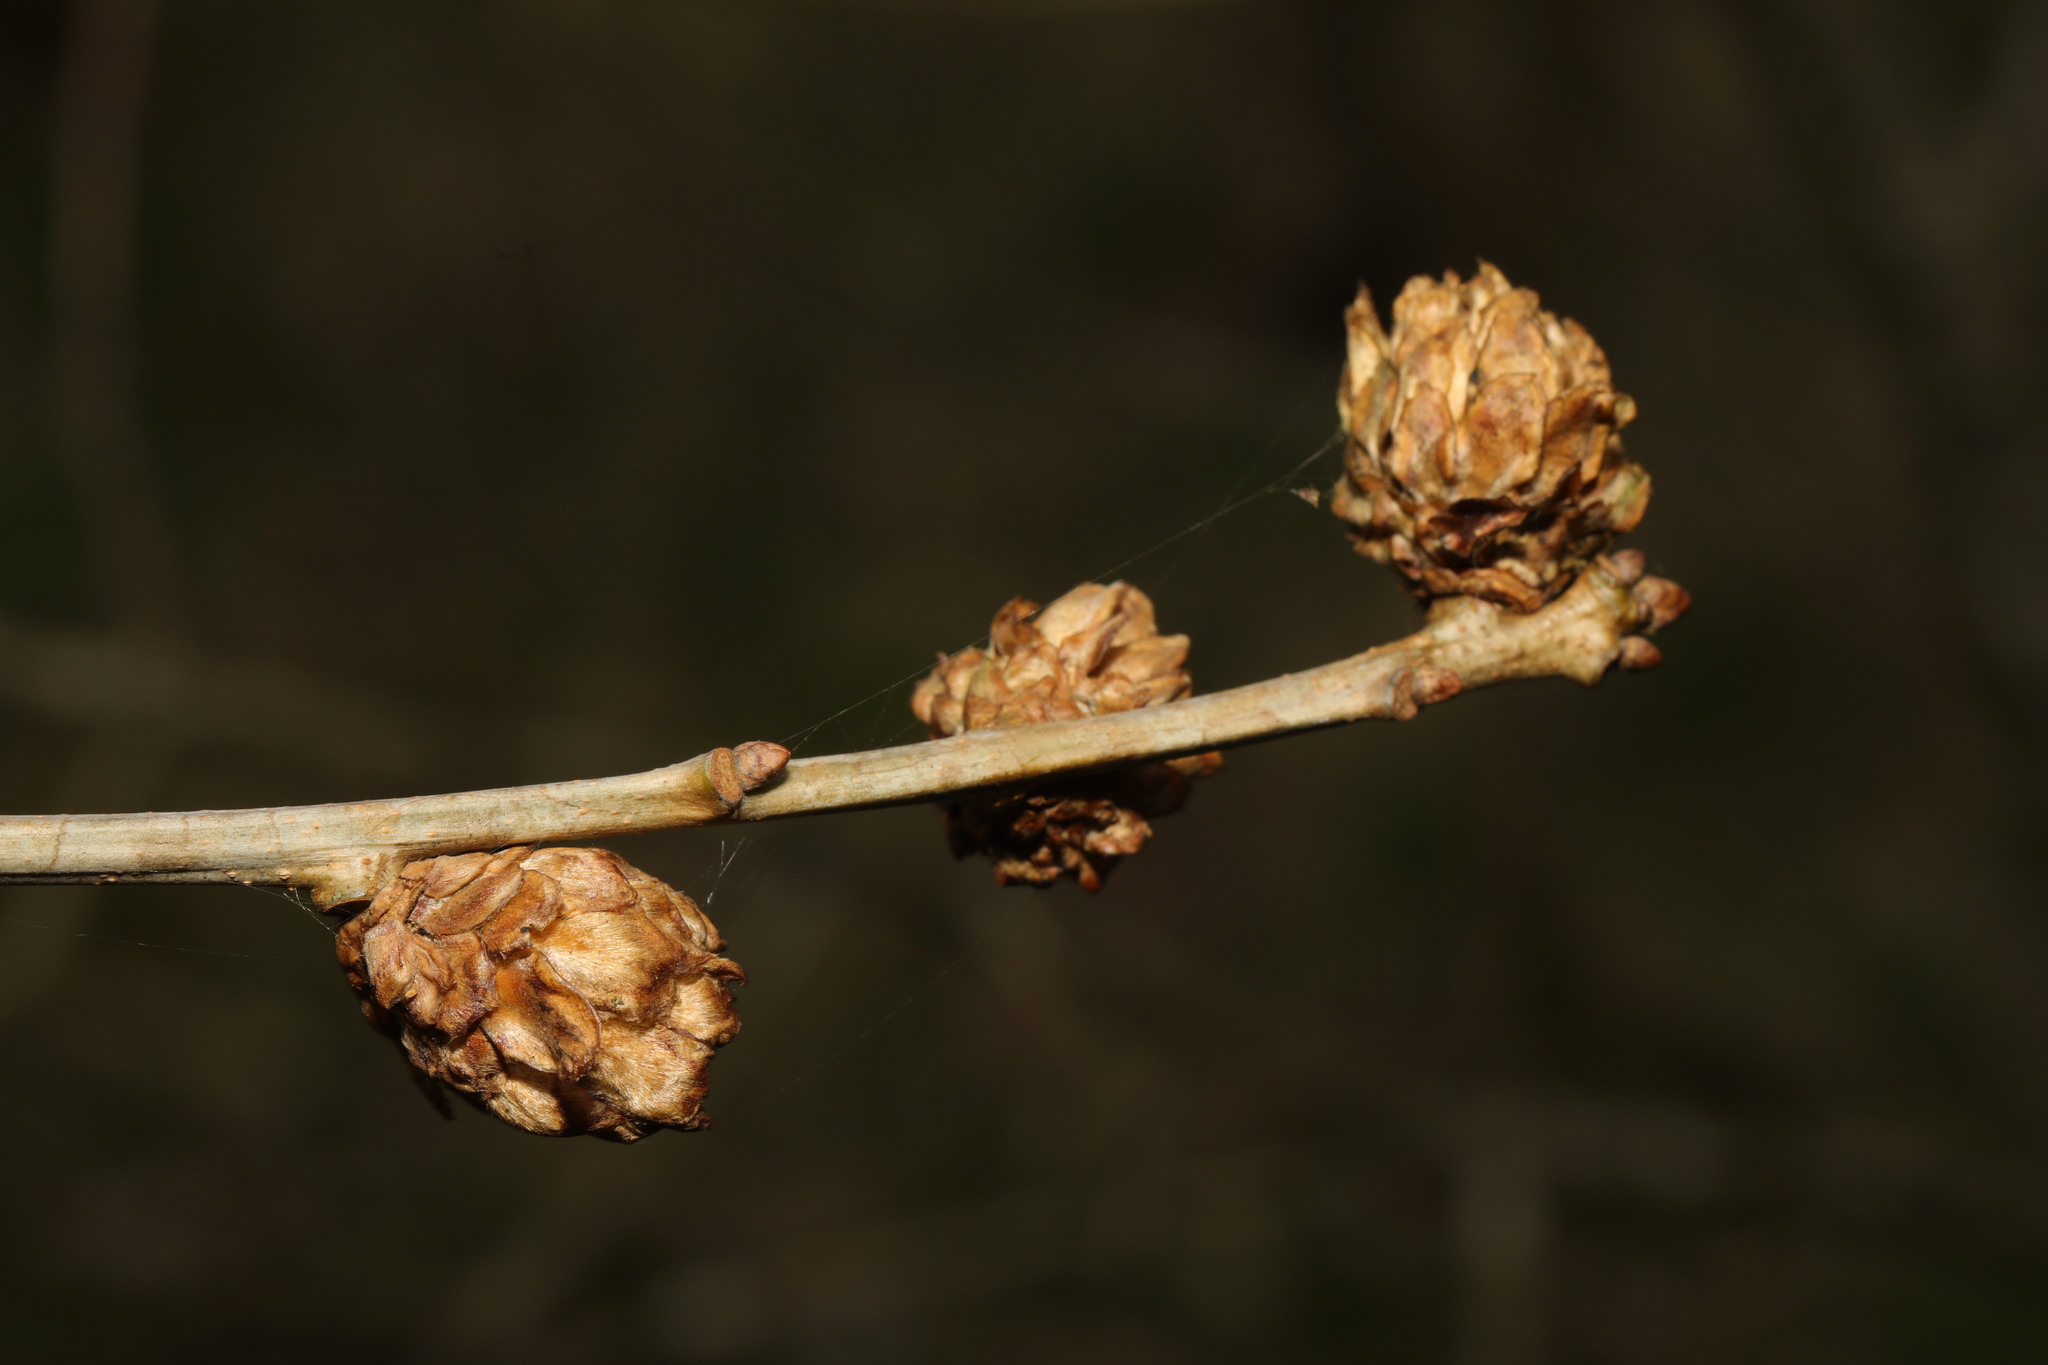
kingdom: Animalia
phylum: Arthropoda
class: Insecta
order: Hymenoptera
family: Cynipidae
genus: Andricus
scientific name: Andricus foecundatrix
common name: Artichoke gall
